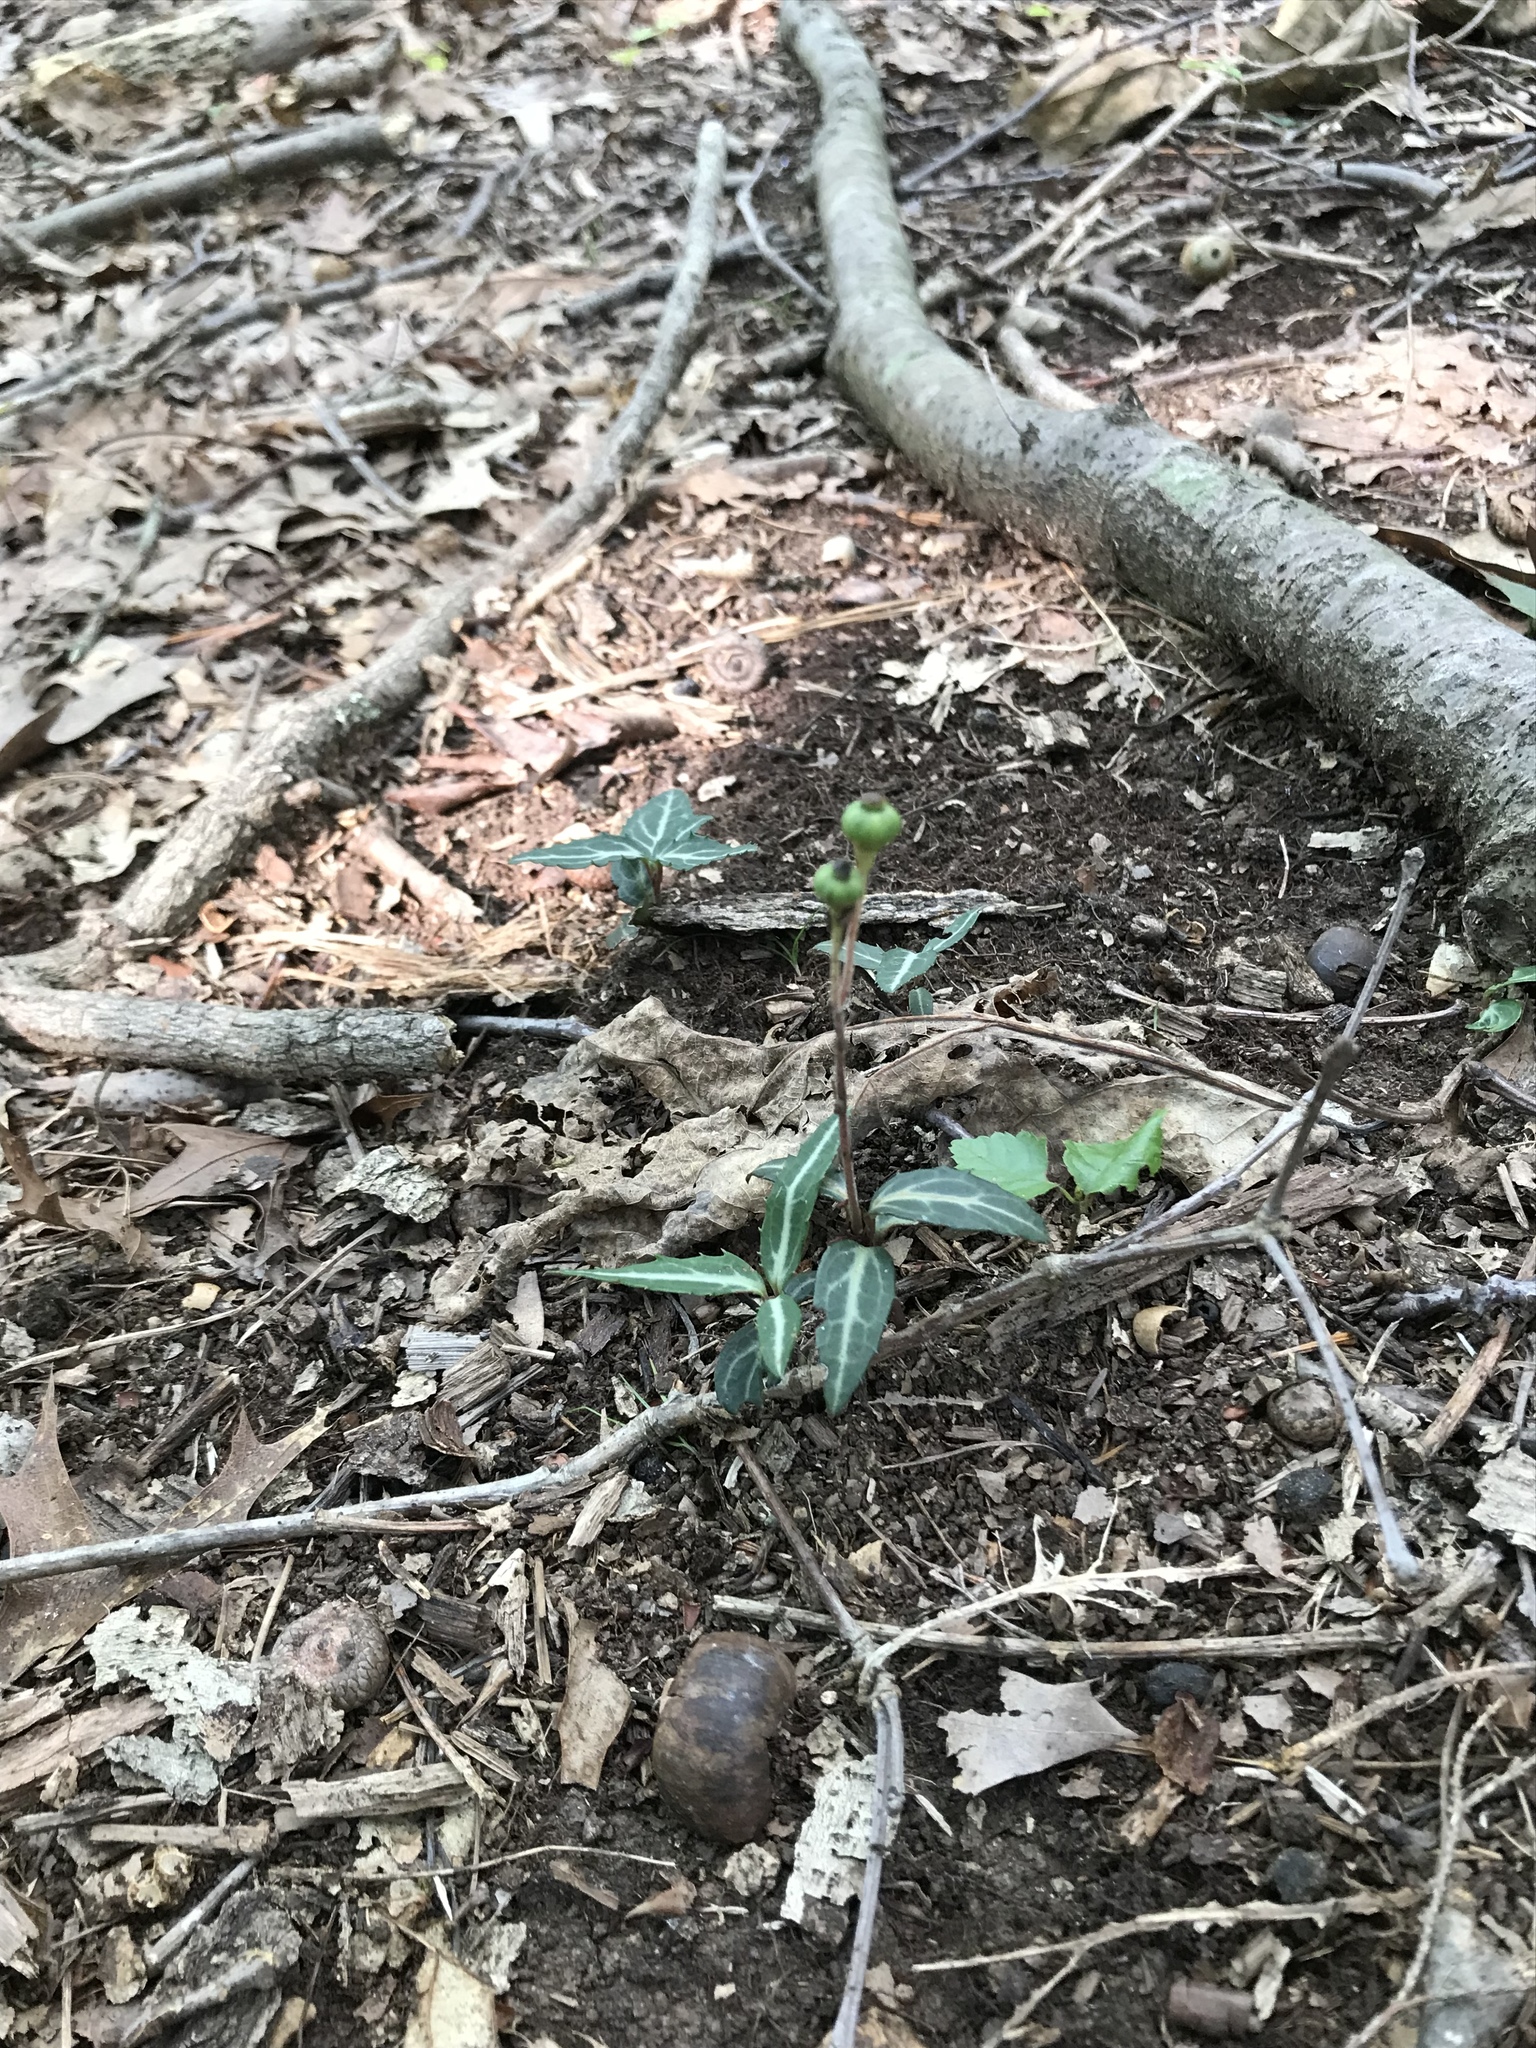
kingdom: Plantae
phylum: Tracheophyta
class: Magnoliopsida
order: Ericales
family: Ericaceae
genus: Chimaphila
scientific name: Chimaphila maculata
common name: Spotted pipsissewa
